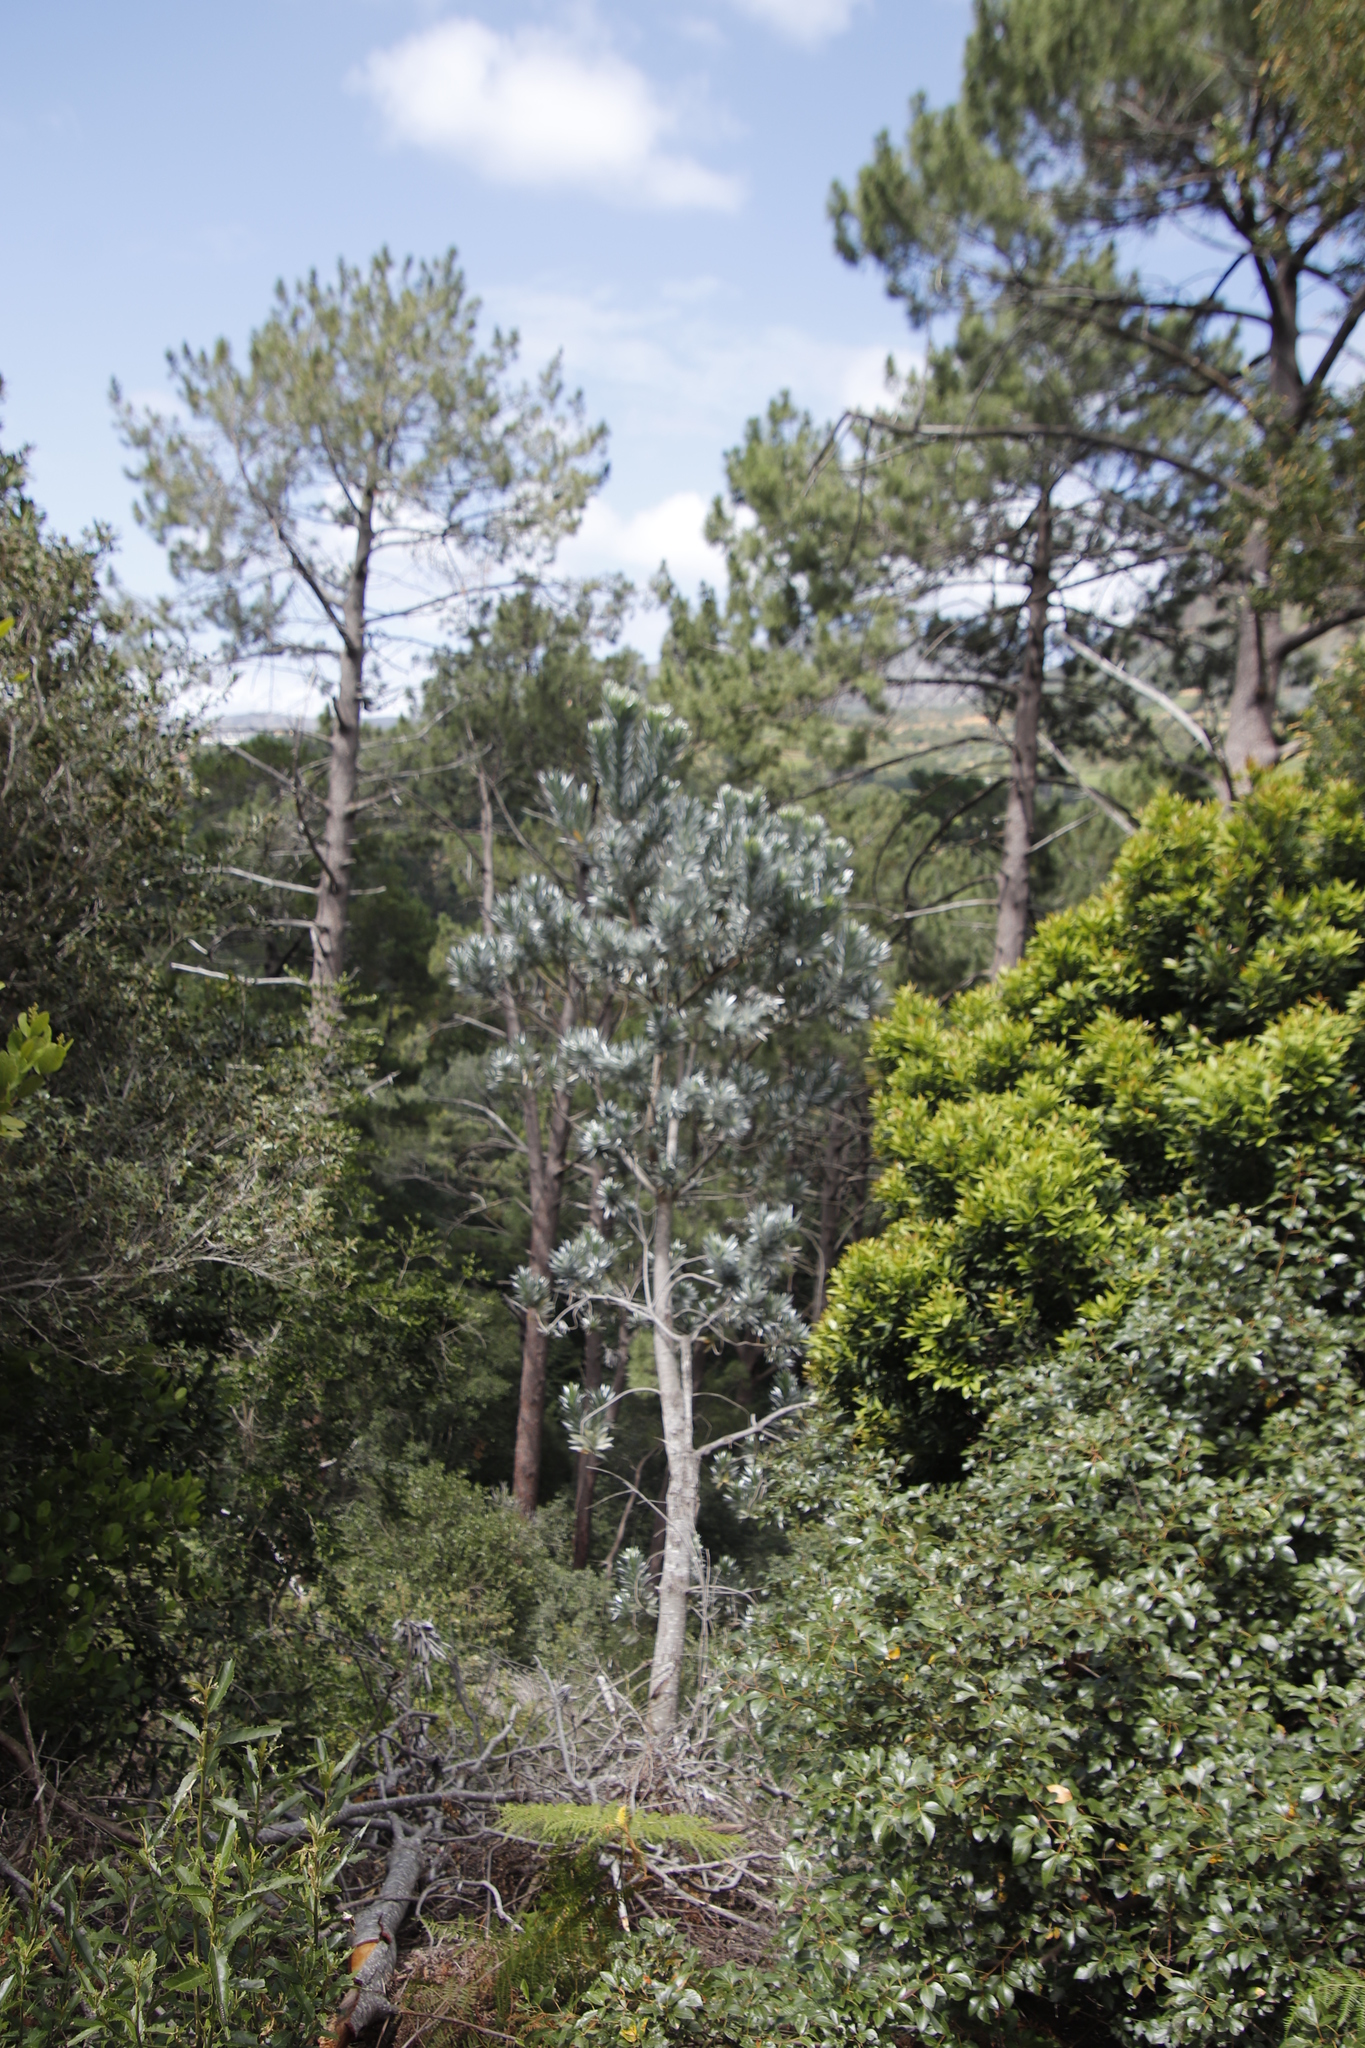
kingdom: Plantae
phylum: Tracheophyta
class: Magnoliopsida
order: Proteales
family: Proteaceae
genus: Leucadendron
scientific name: Leucadendron argenteum
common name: Cape silver tree
